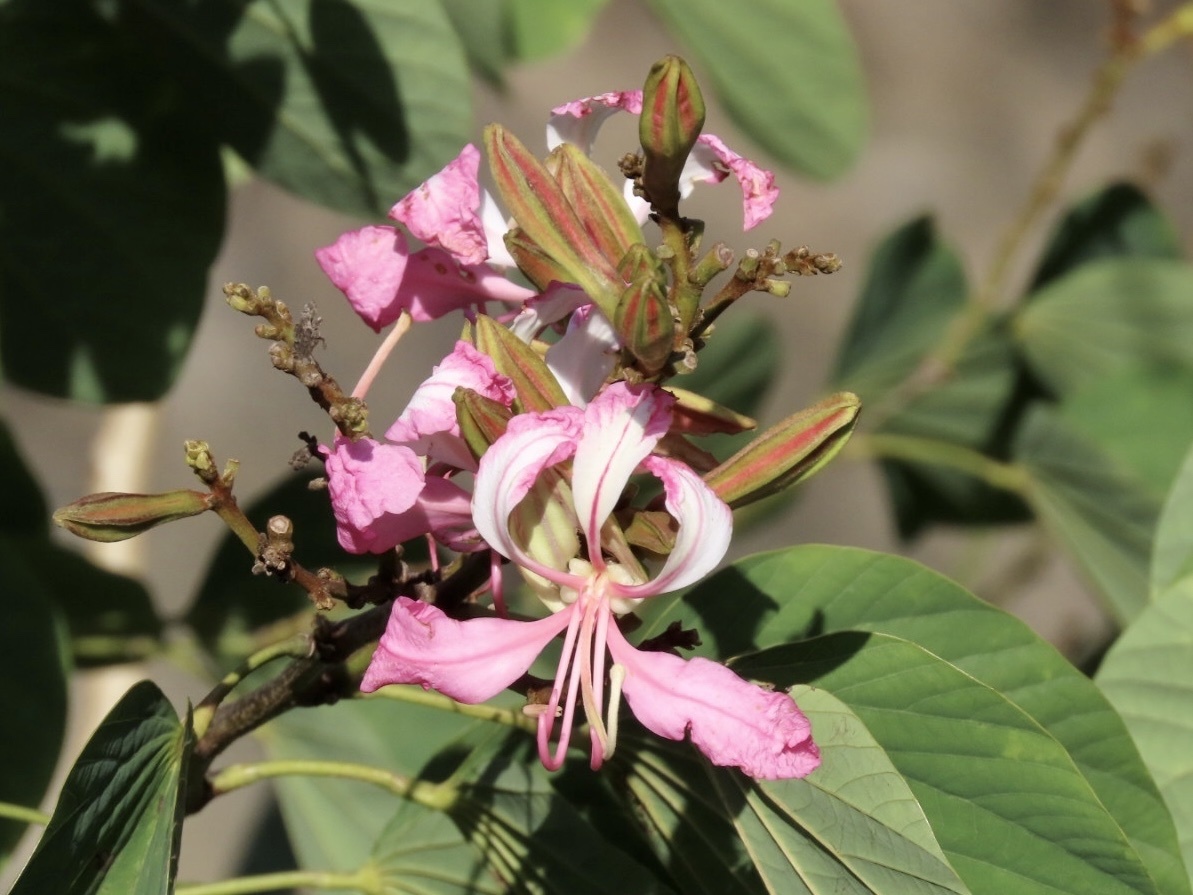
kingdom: Plantae
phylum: Tracheophyta
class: Magnoliopsida
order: Fabales
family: Fabaceae
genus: Bauhinia
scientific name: Bauhinia purpurea
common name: Butterfly-tree
